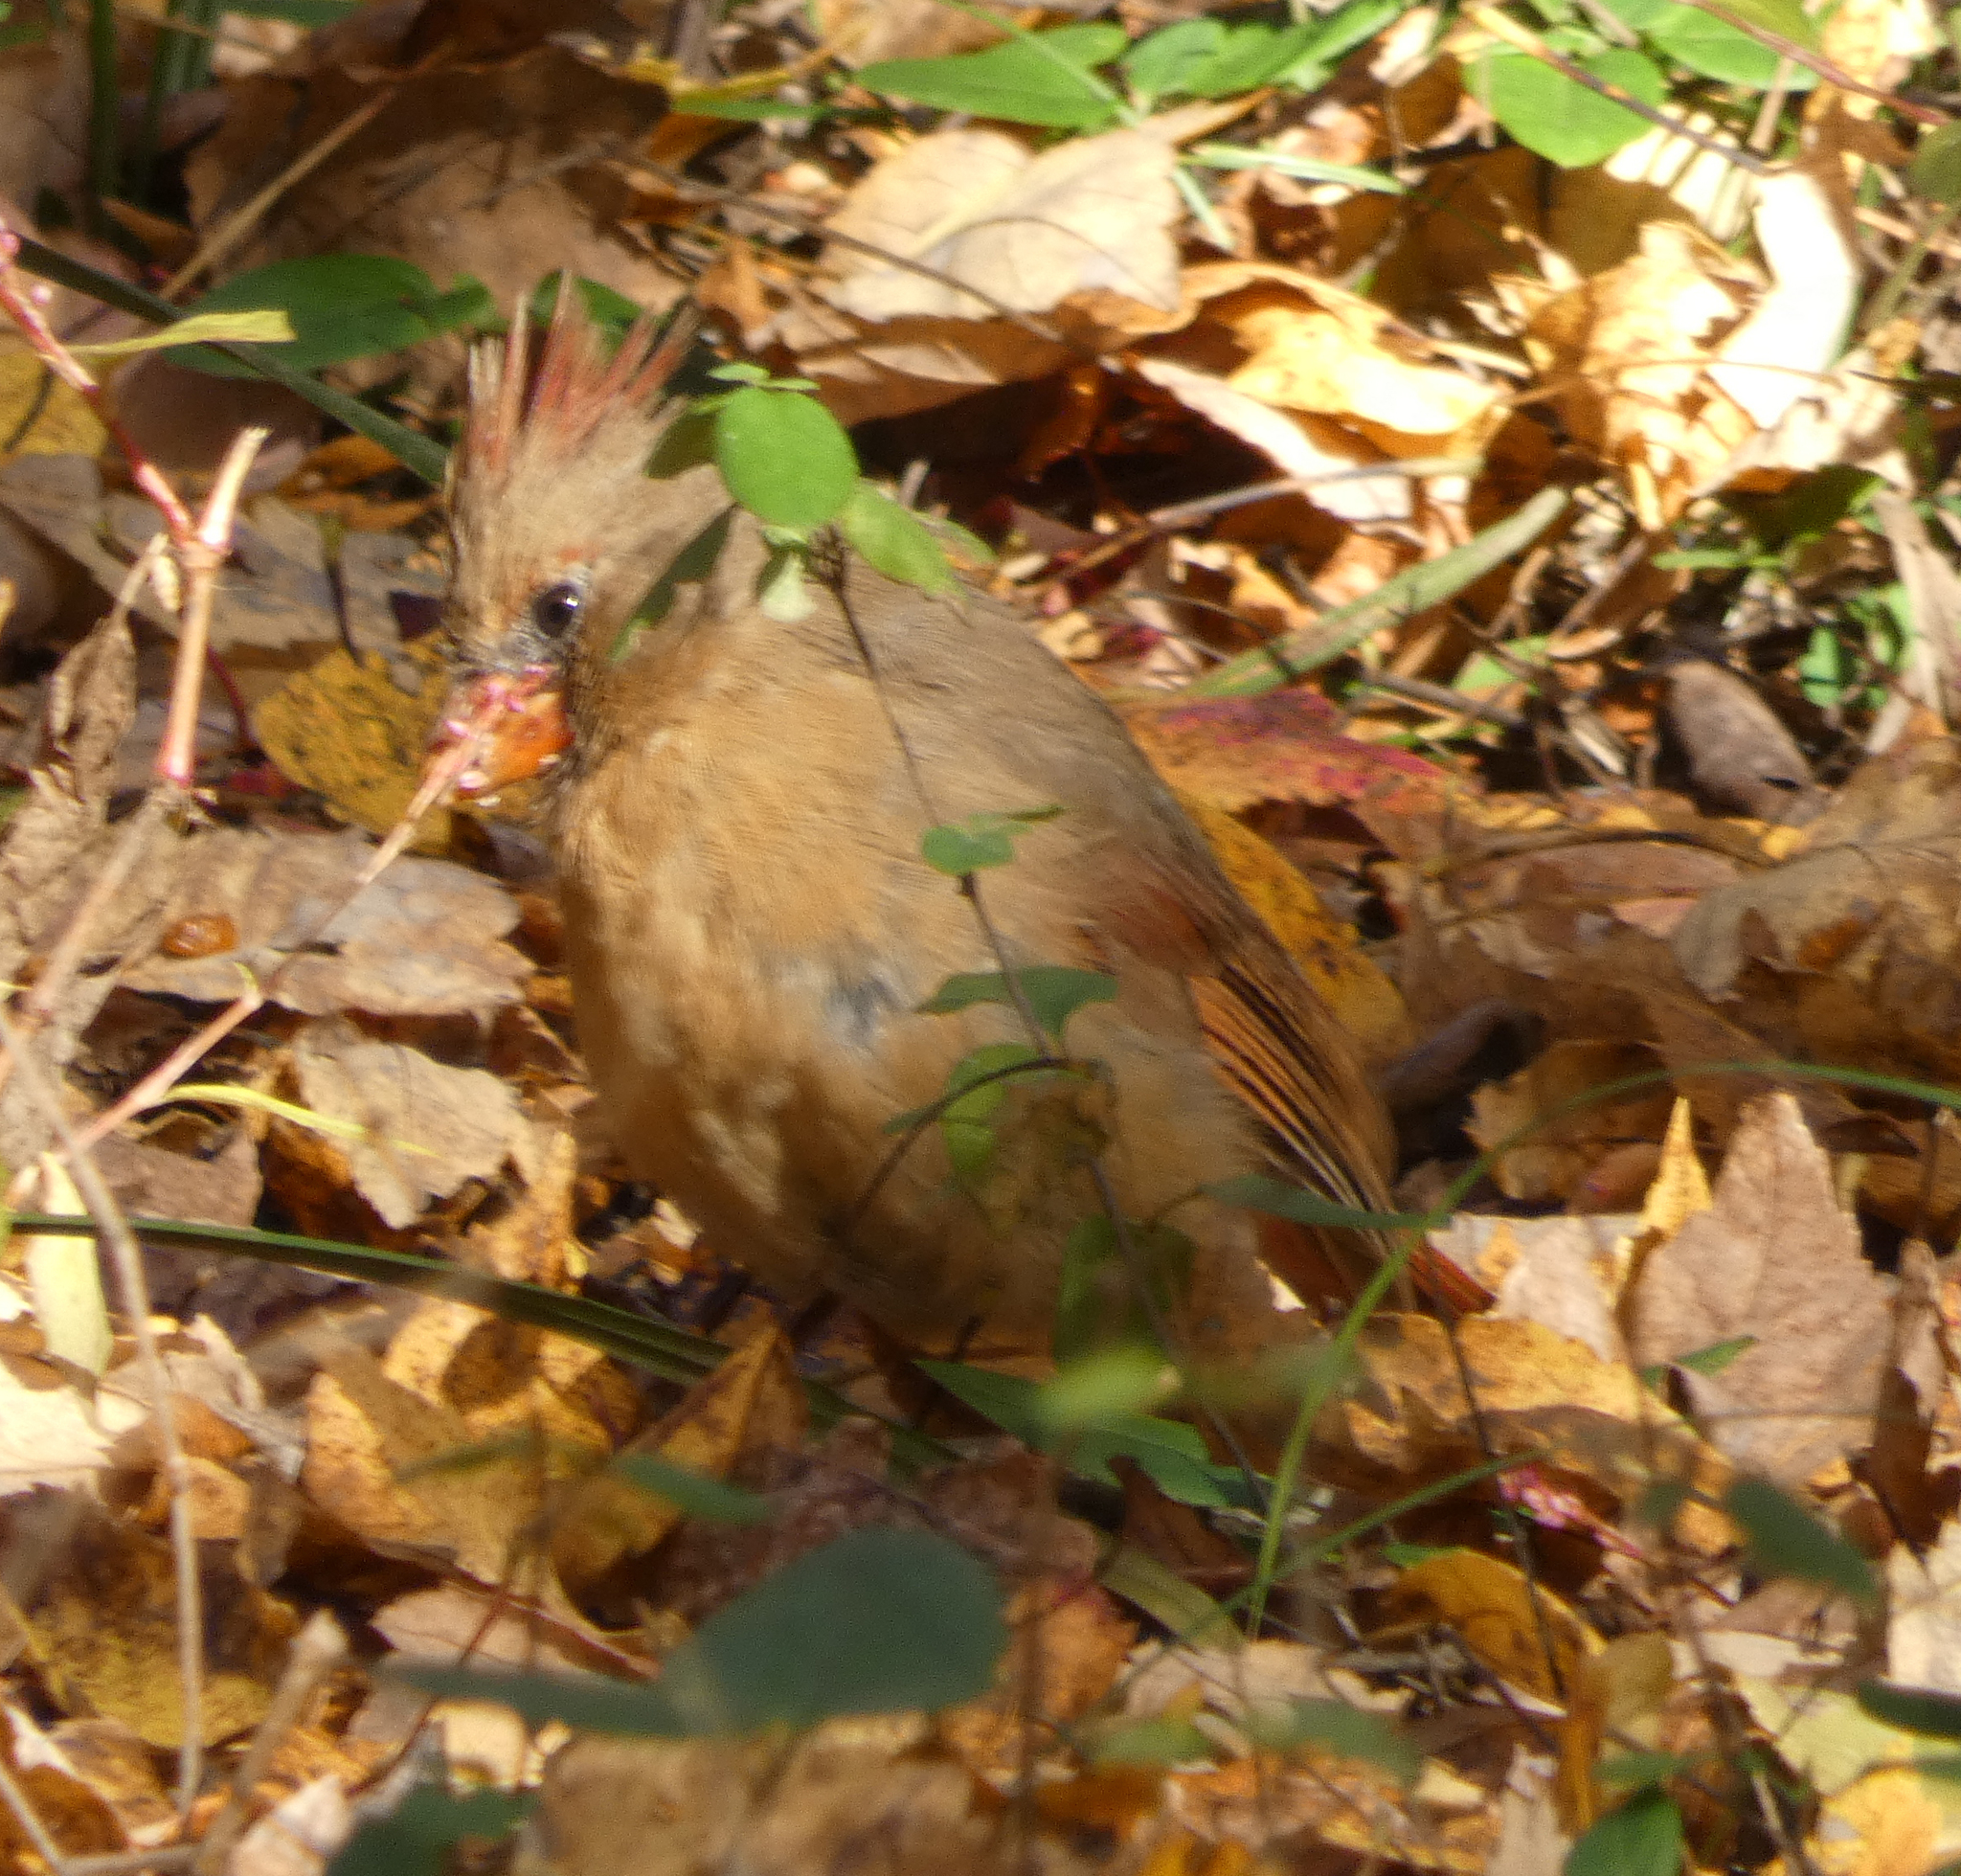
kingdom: Animalia
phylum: Chordata
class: Aves
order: Passeriformes
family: Cardinalidae
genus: Cardinalis
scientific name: Cardinalis cardinalis
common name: Northern cardinal
